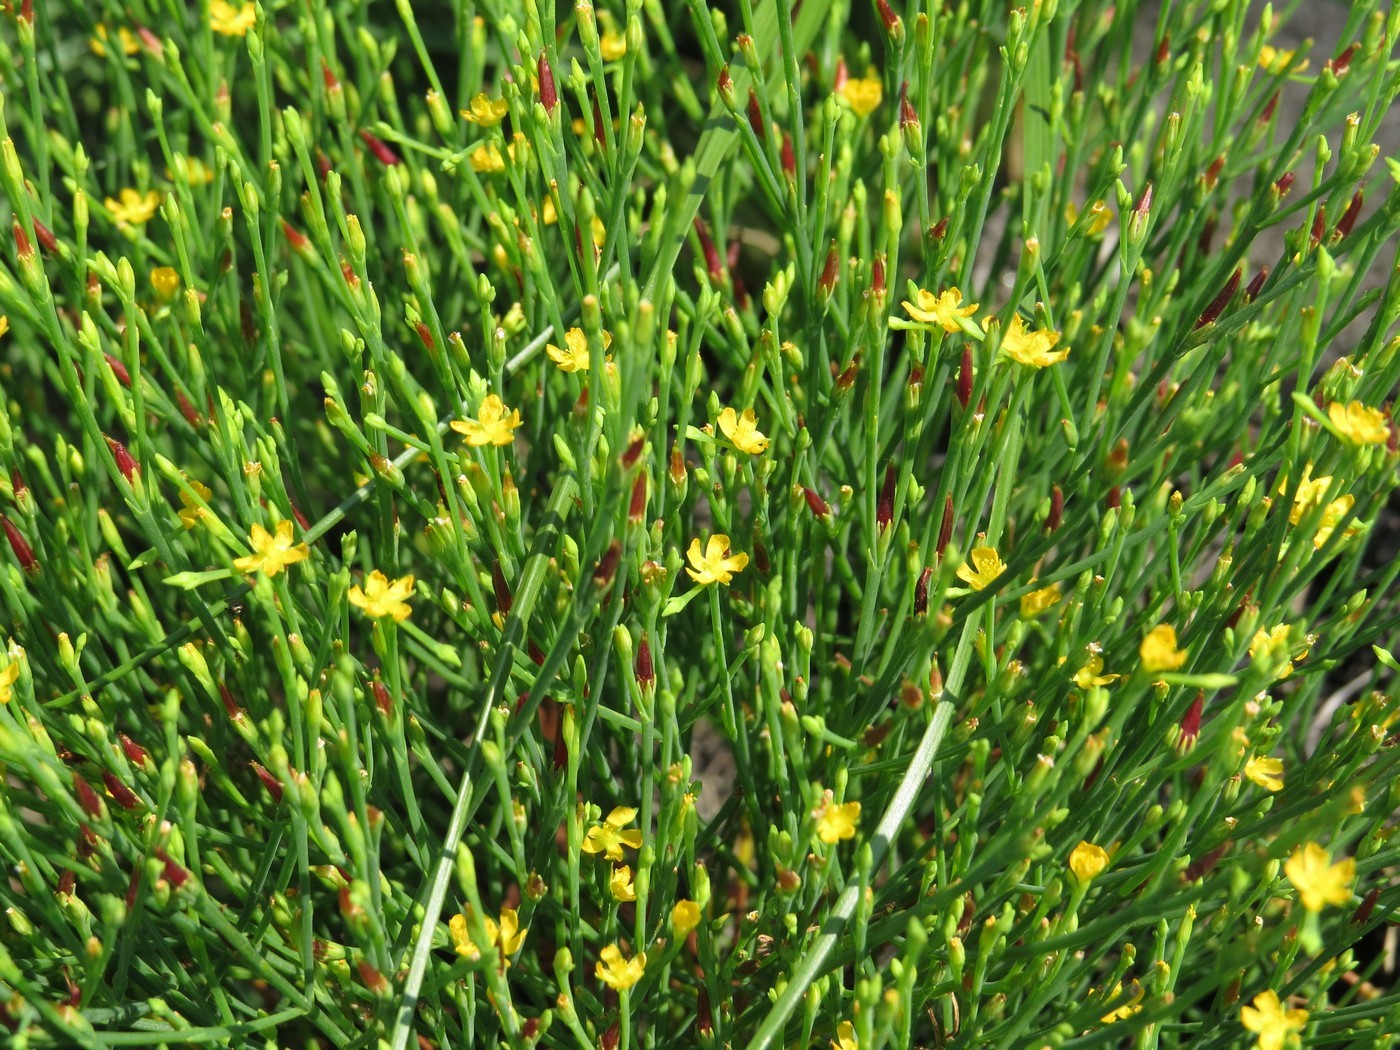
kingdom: Plantae
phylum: Tracheophyta
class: Magnoliopsida
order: Malpighiales
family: Hypericaceae
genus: Hypericum
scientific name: Hypericum gentianoides
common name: Gentian-leaved st. john's-wort
